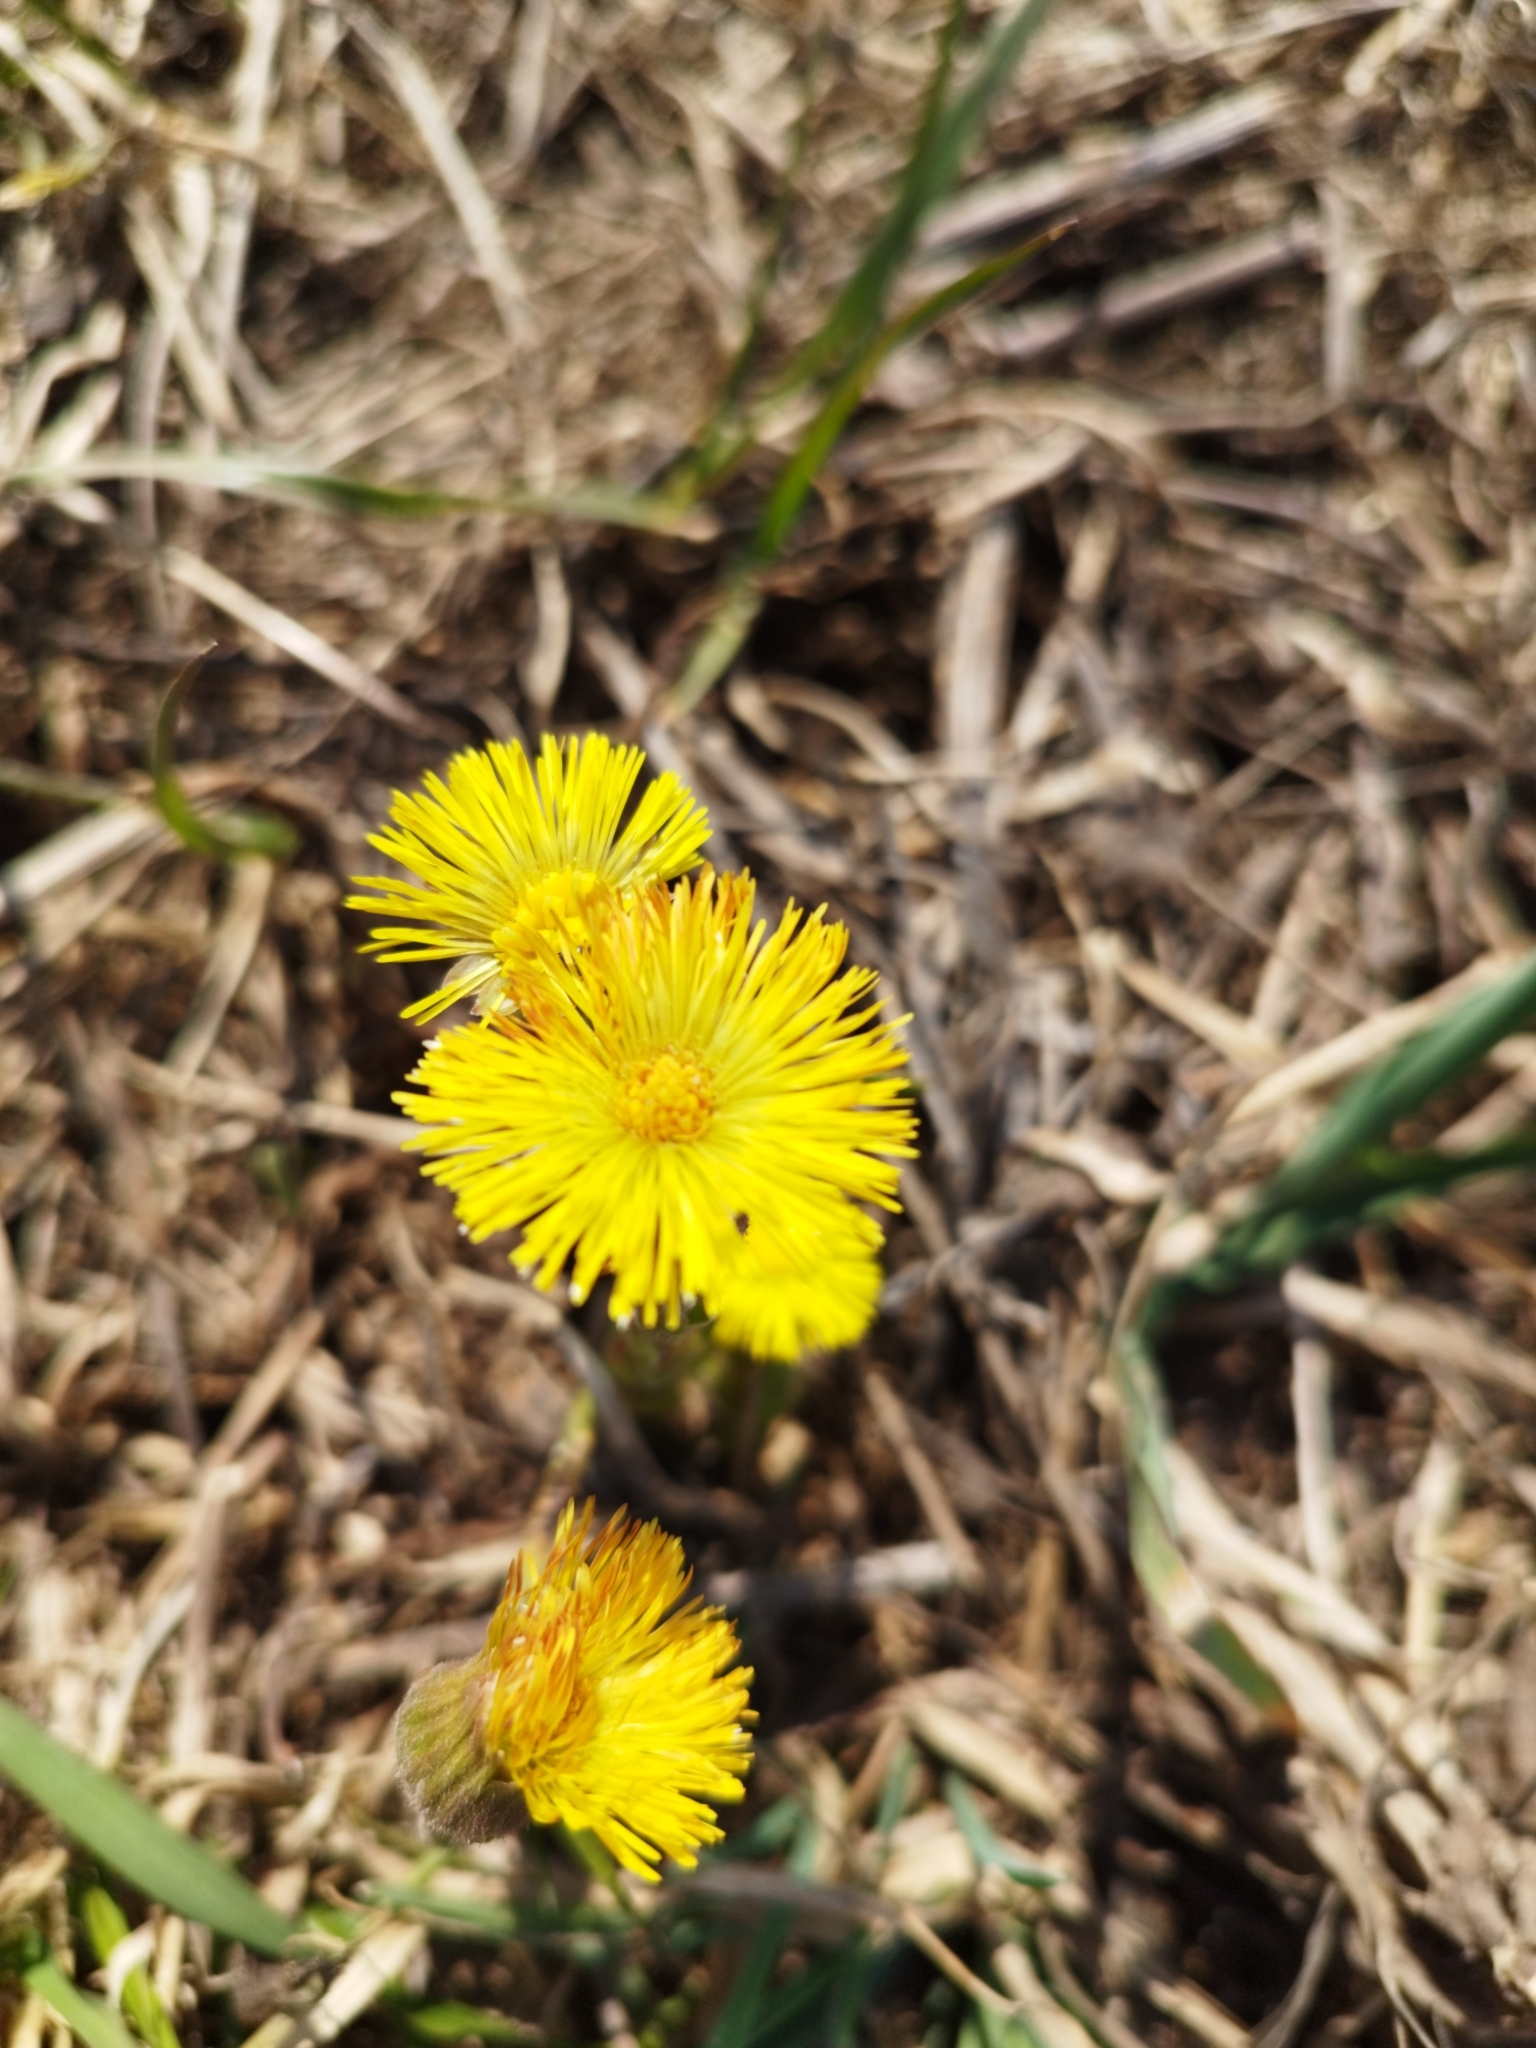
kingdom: Plantae
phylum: Tracheophyta
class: Magnoliopsida
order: Asterales
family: Asteraceae
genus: Tussilago
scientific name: Tussilago farfara
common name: Coltsfoot
